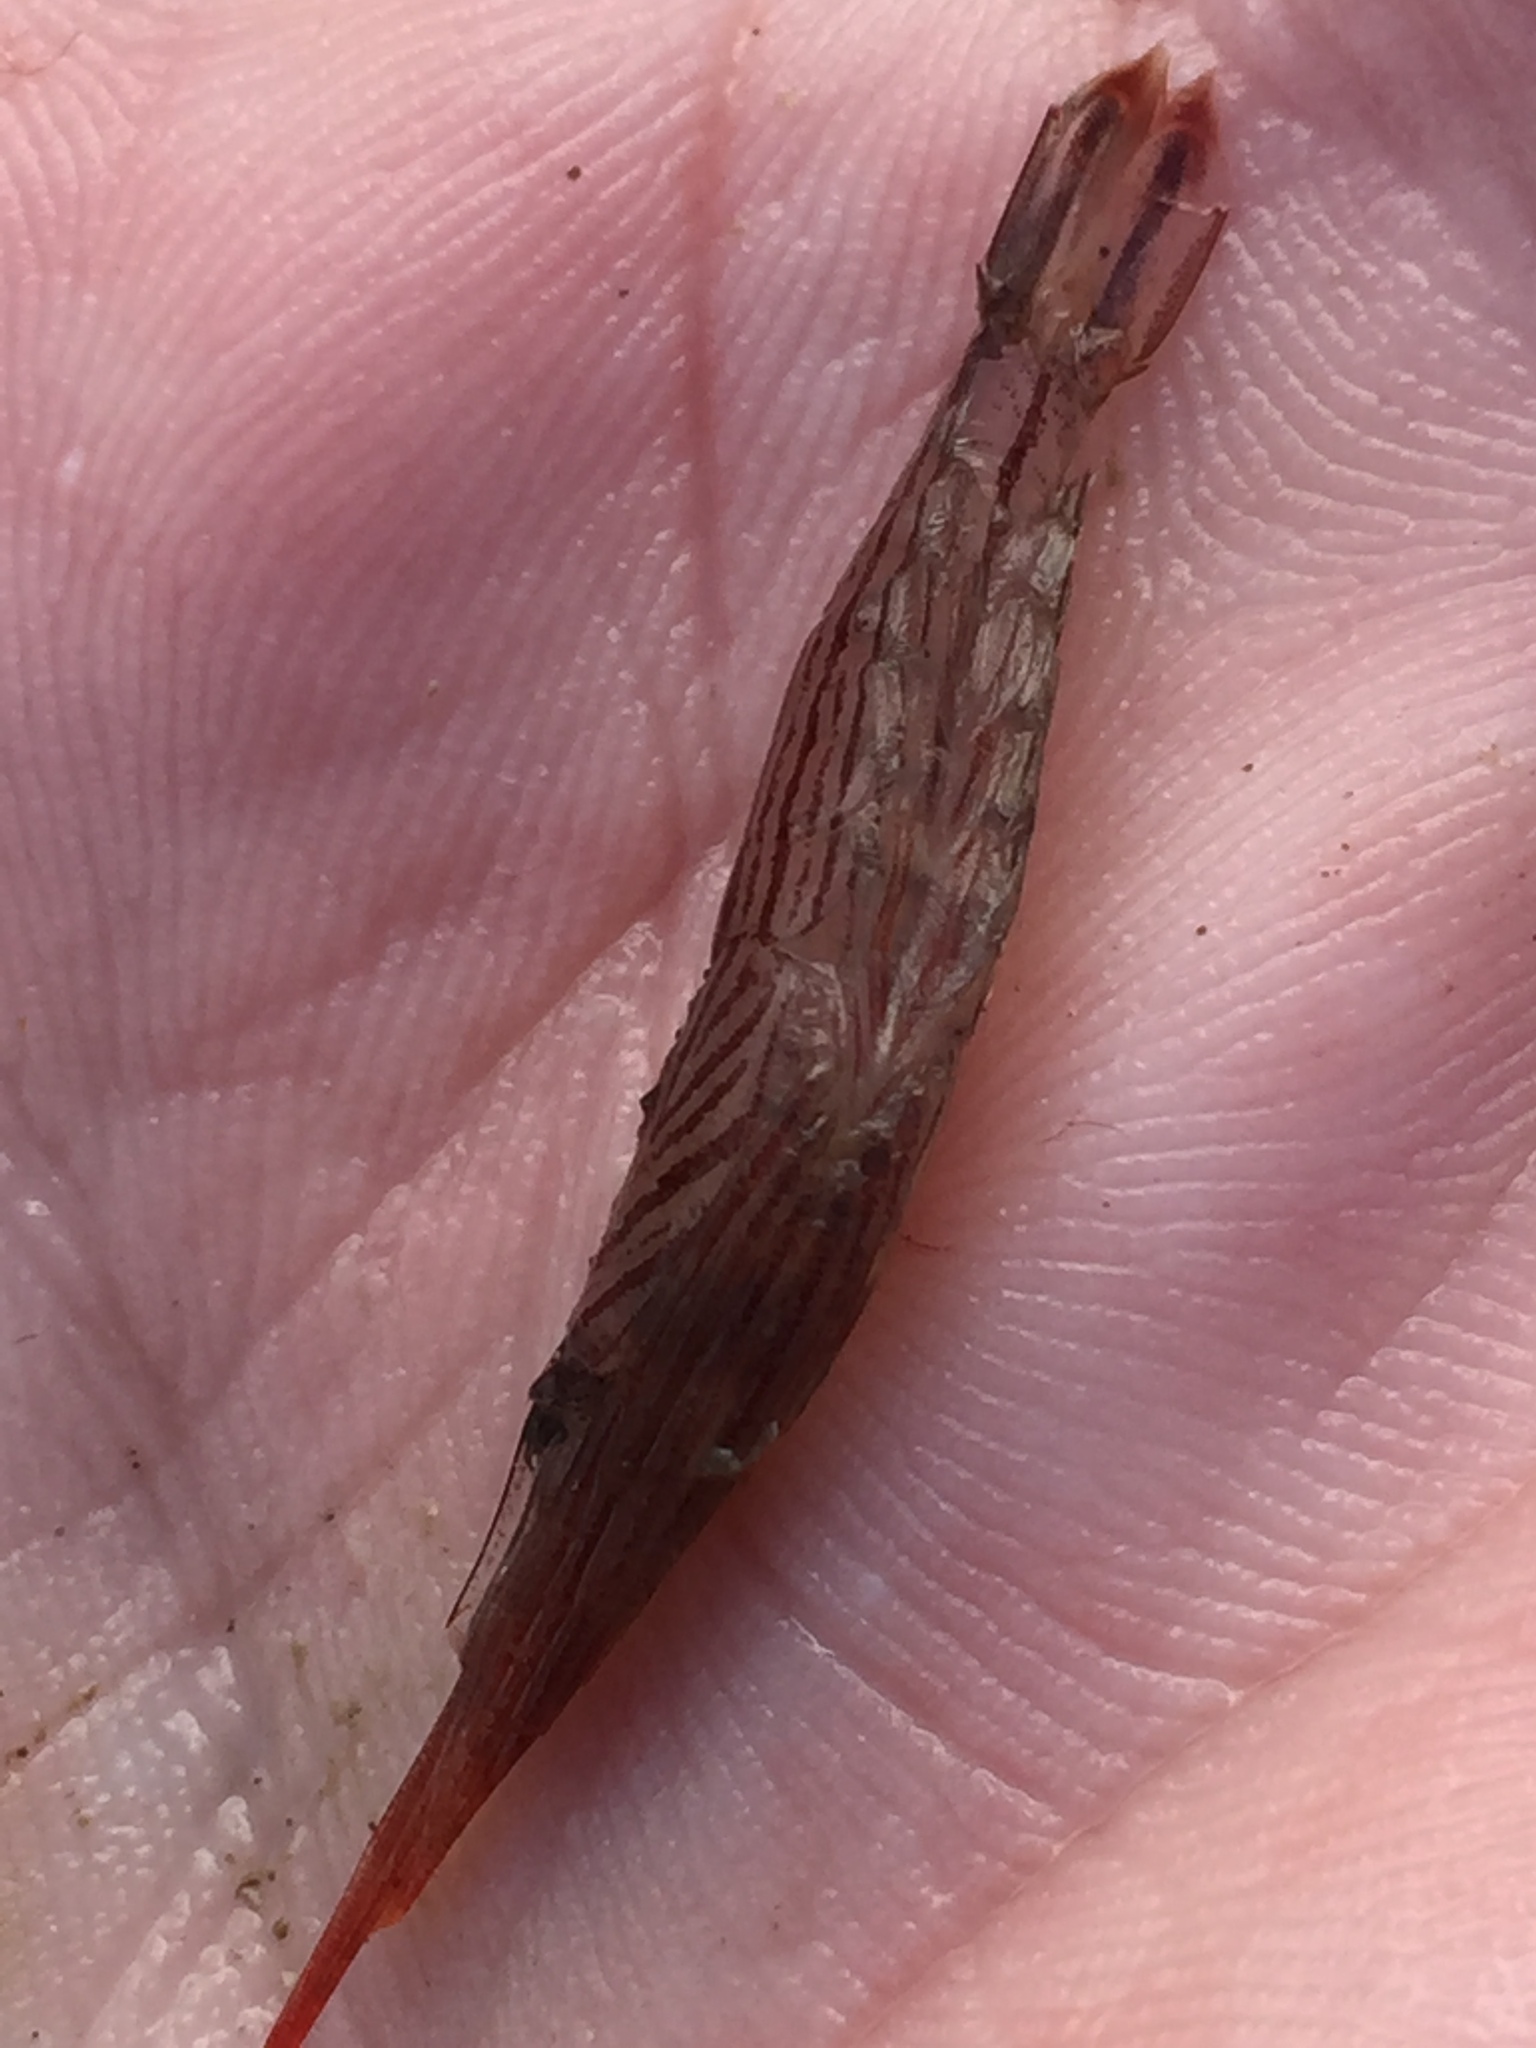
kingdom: Animalia
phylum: Arthropoda
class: Malacostraca
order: Decapoda
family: Lysmatidae
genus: Lysmata
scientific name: Lysmata vittata
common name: Indian lined shrimp
